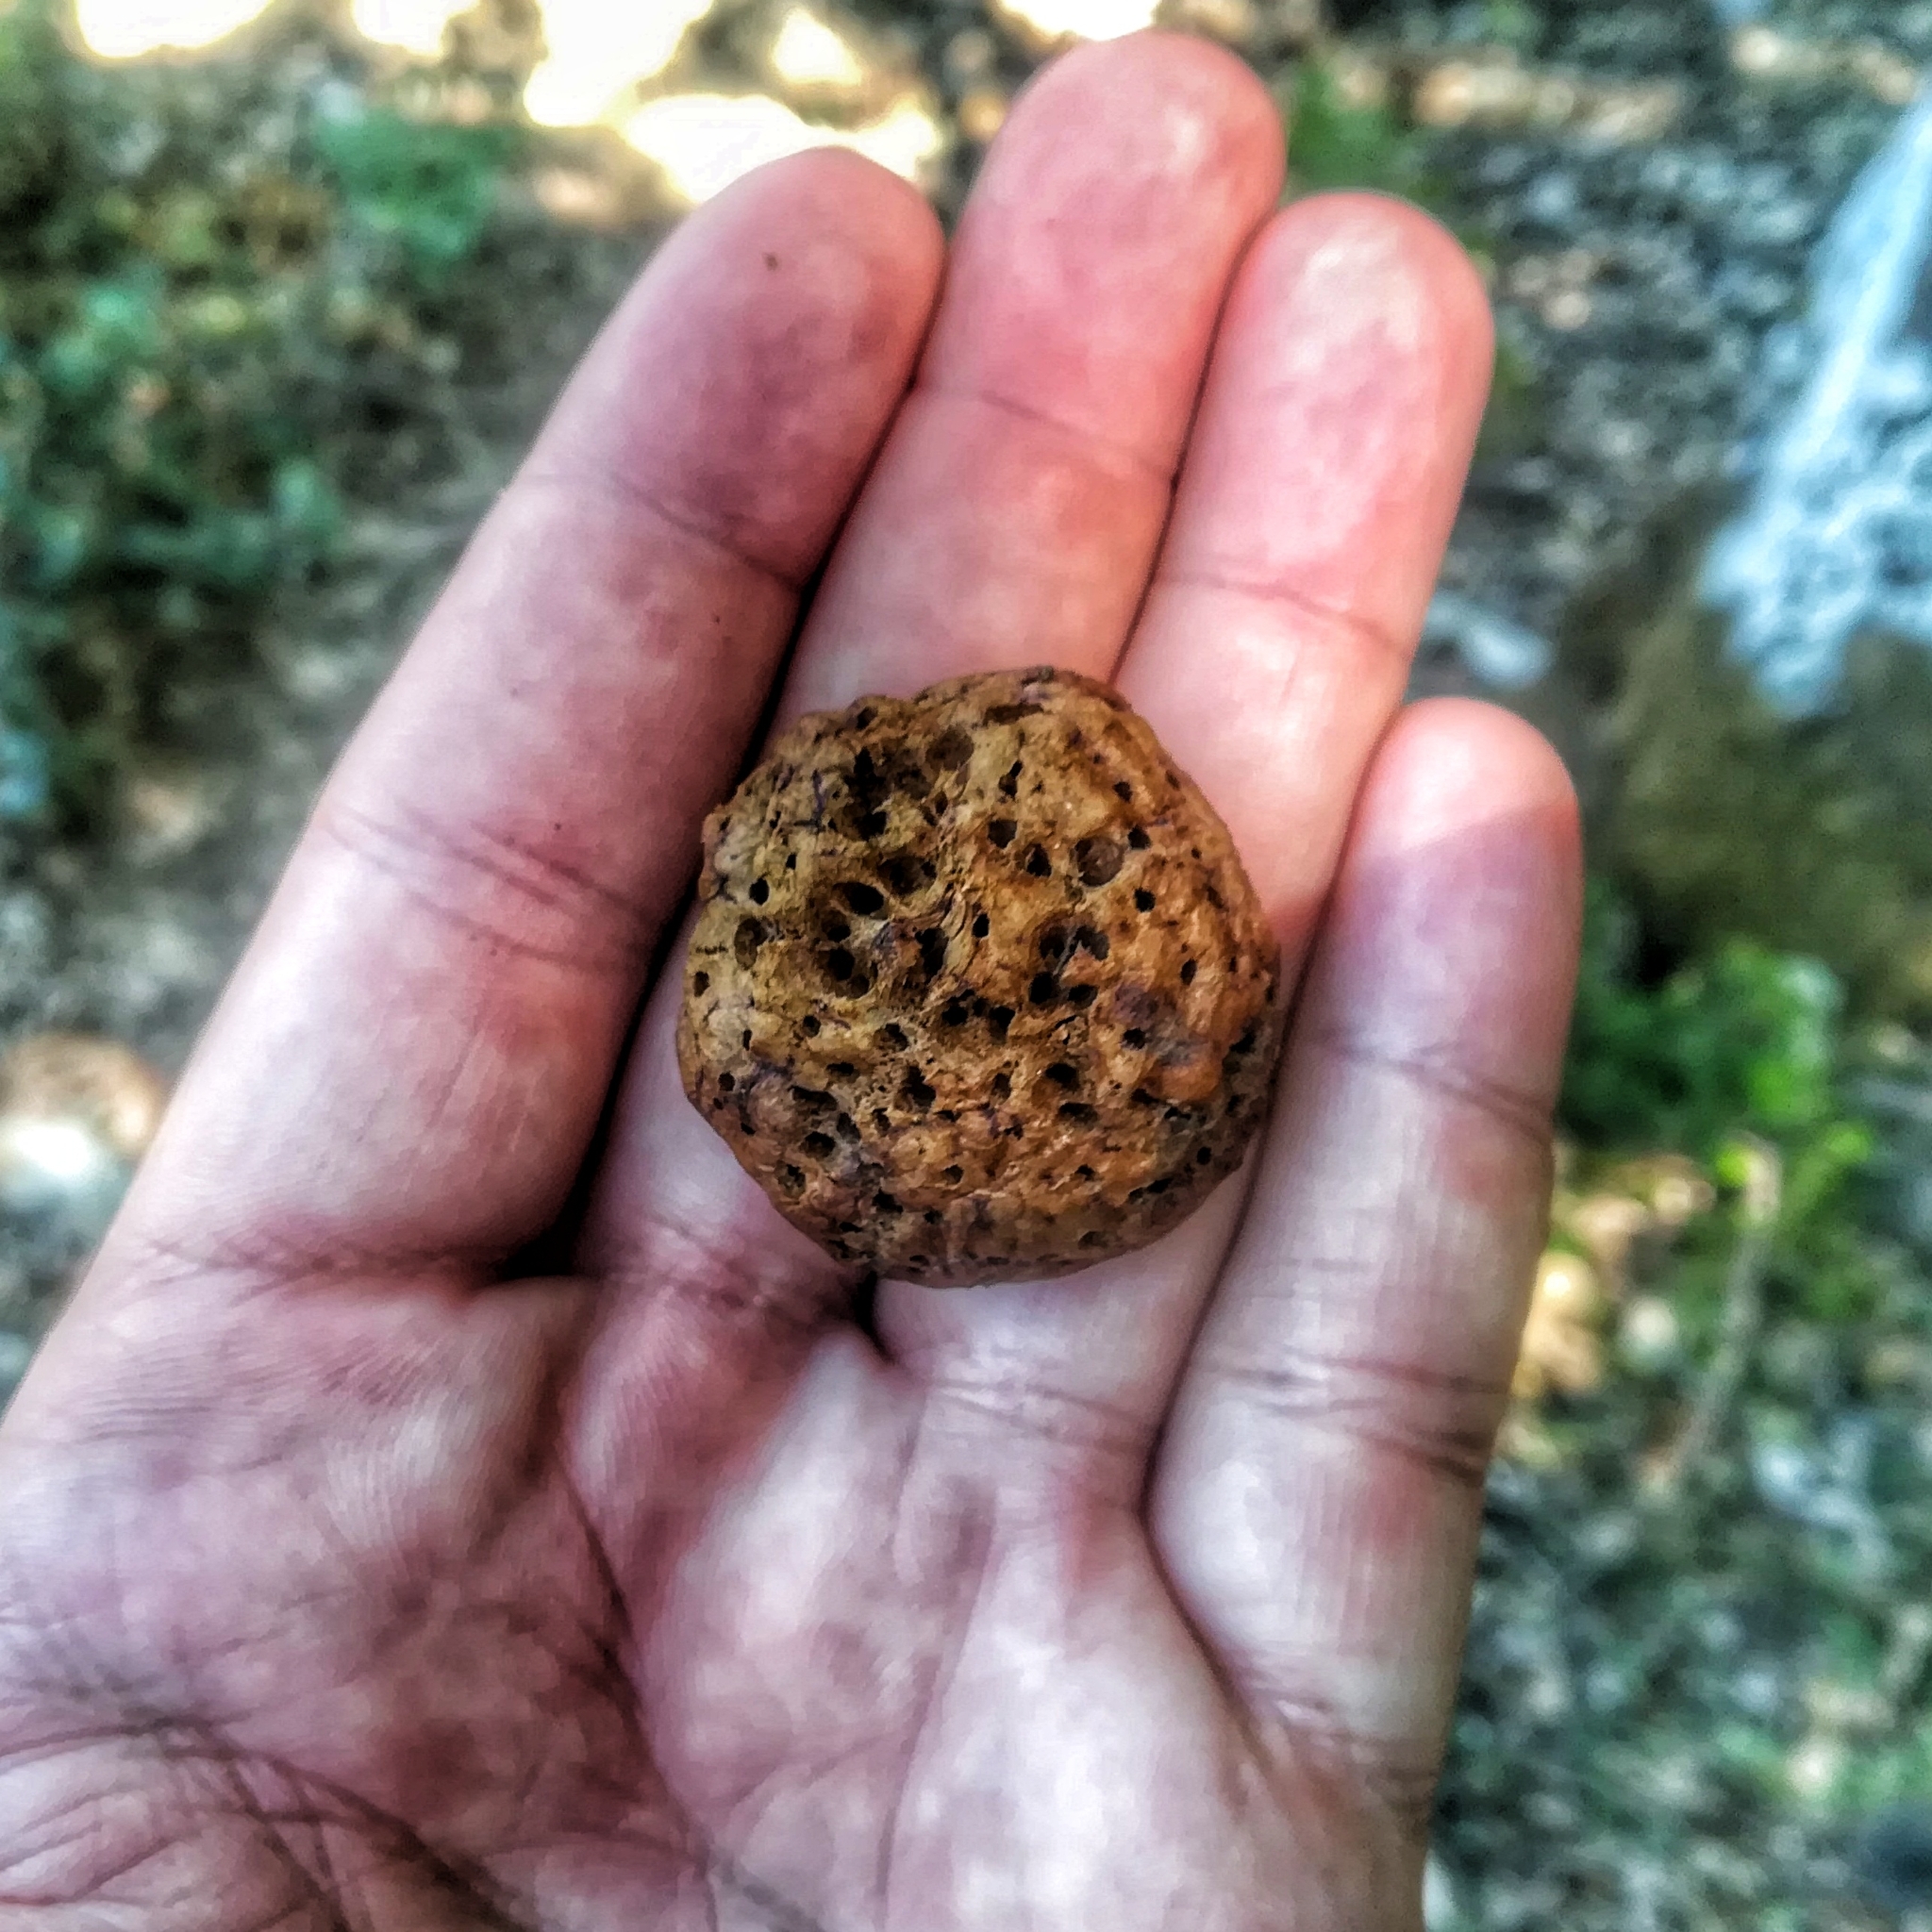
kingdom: Animalia
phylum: Arthropoda
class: Insecta
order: Hymenoptera
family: Cynipidae
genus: Biorhiza
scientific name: Biorhiza pallida
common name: Oak apple
